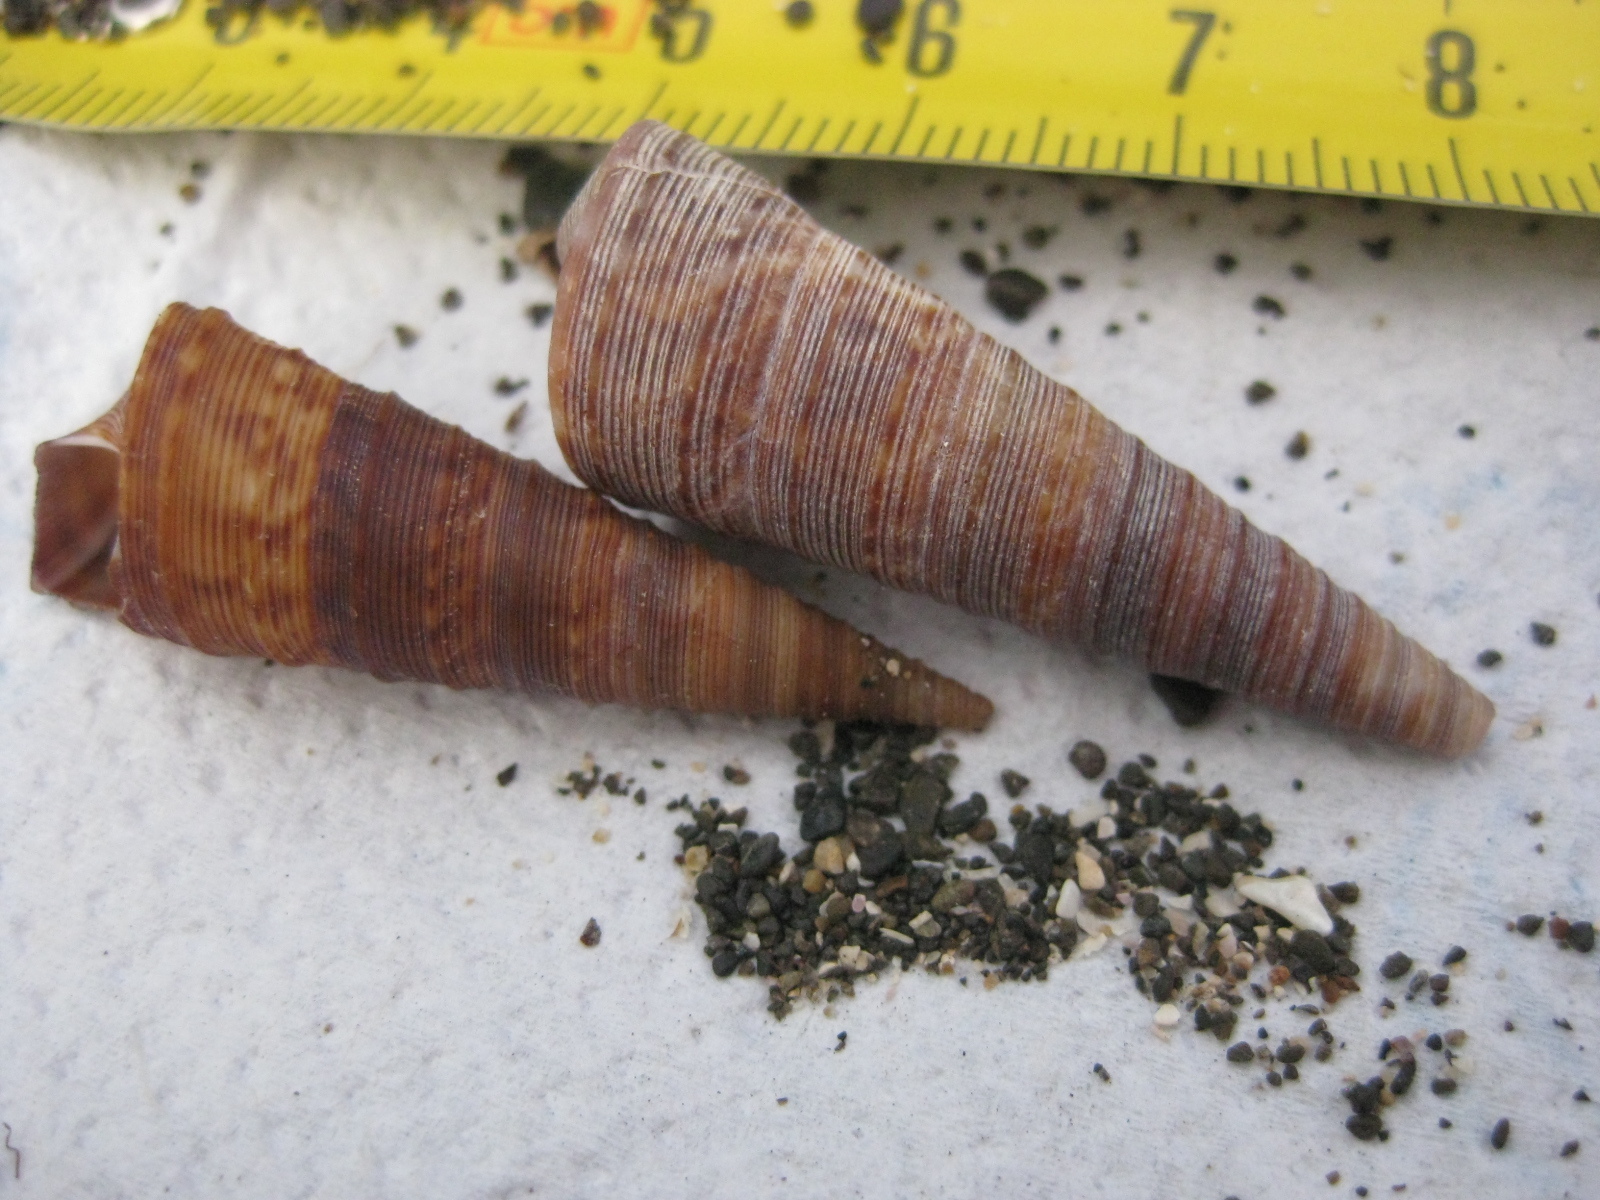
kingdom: Animalia
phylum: Mollusca
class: Gastropoda
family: Turritellidae
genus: Maoricolpus
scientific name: Maoricolpus roseus
